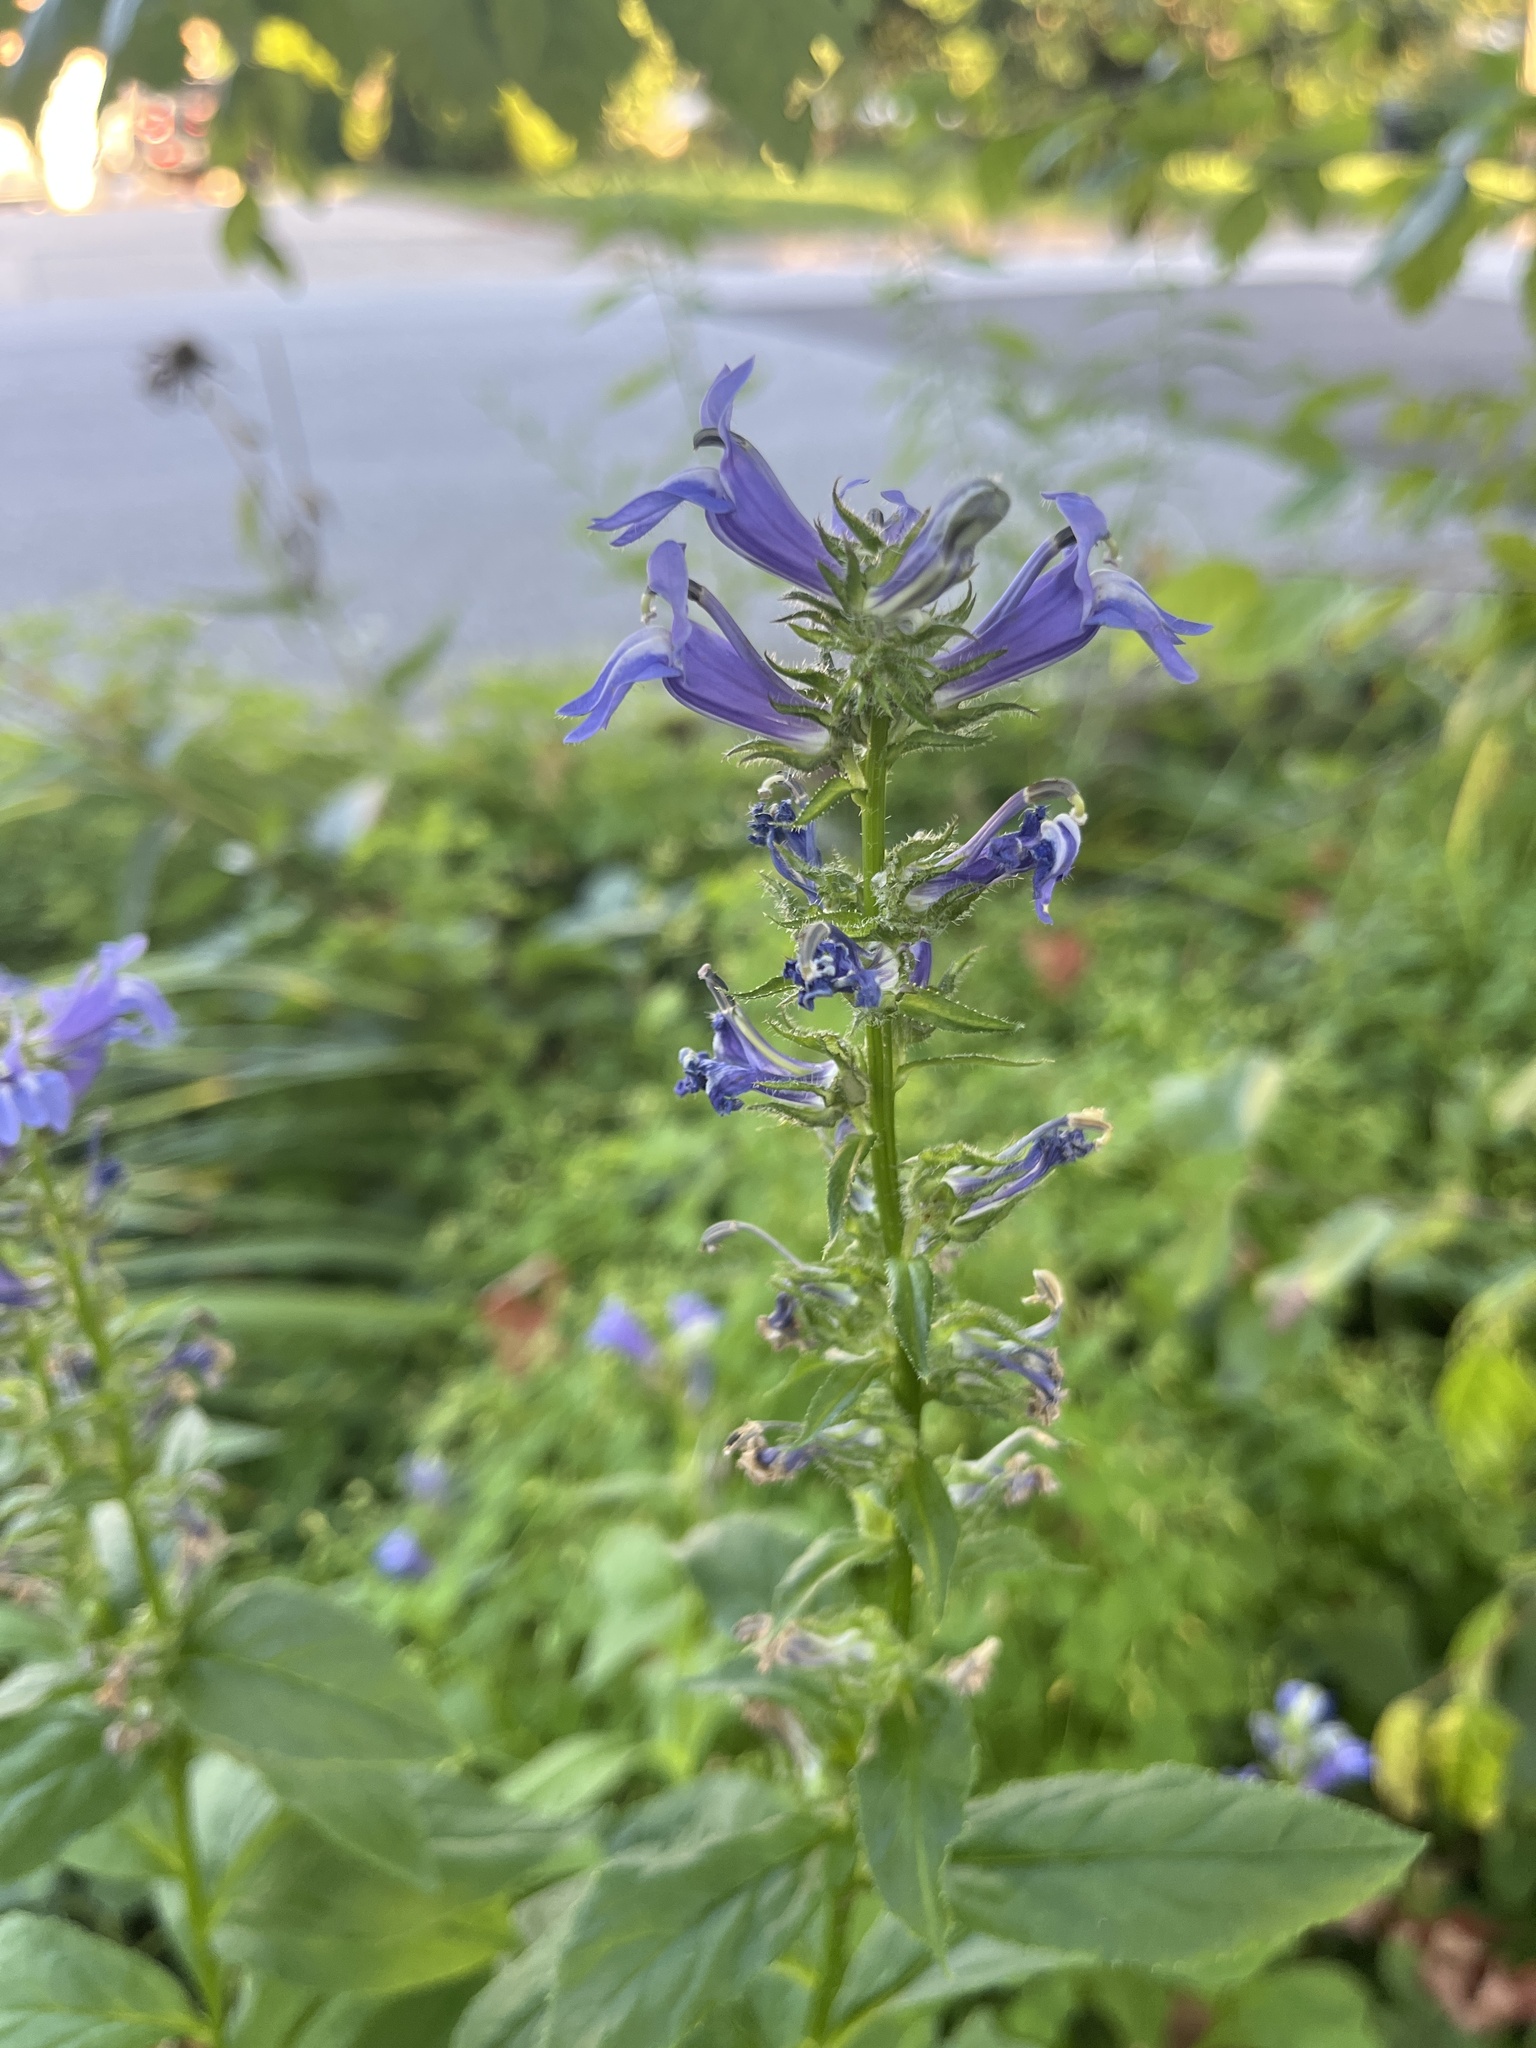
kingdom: Plantae
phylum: Tracheophyta
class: Magnoliopsida
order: Asterales
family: Campanulaceae
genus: Lobelia
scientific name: Lobelia siphilitica
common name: Great lobelia
